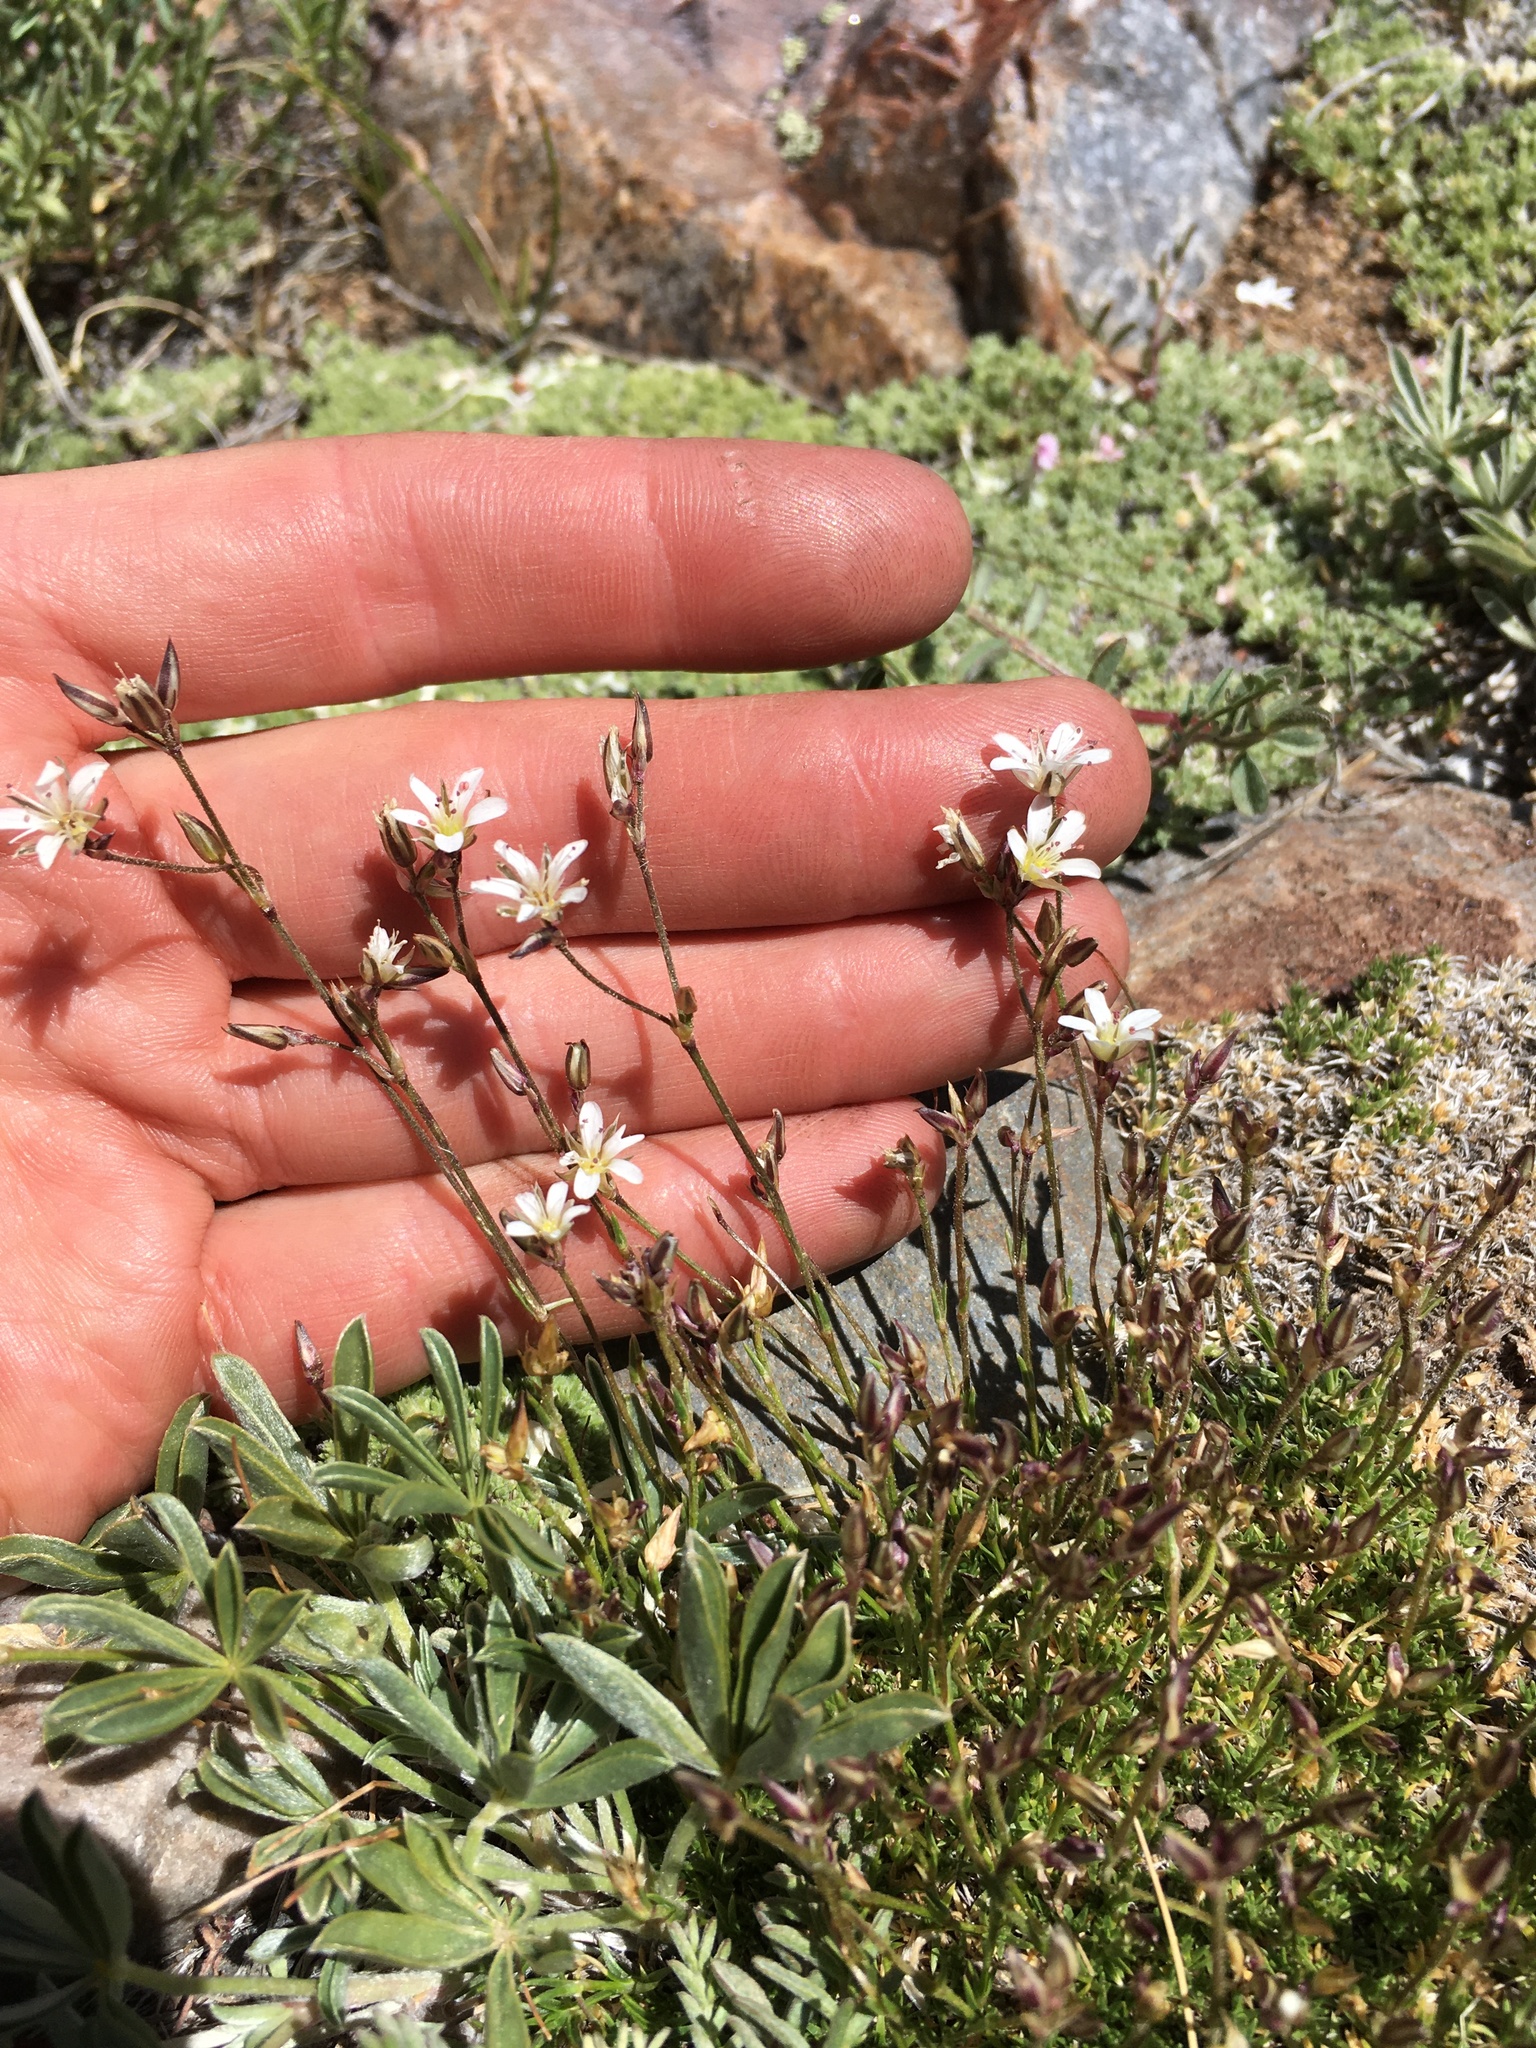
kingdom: Plantae
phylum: Tracheophyta
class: Magnoliopsida
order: Caryophyllales
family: Caryophyllaceae
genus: Eremogone
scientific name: Eremogone kingii
